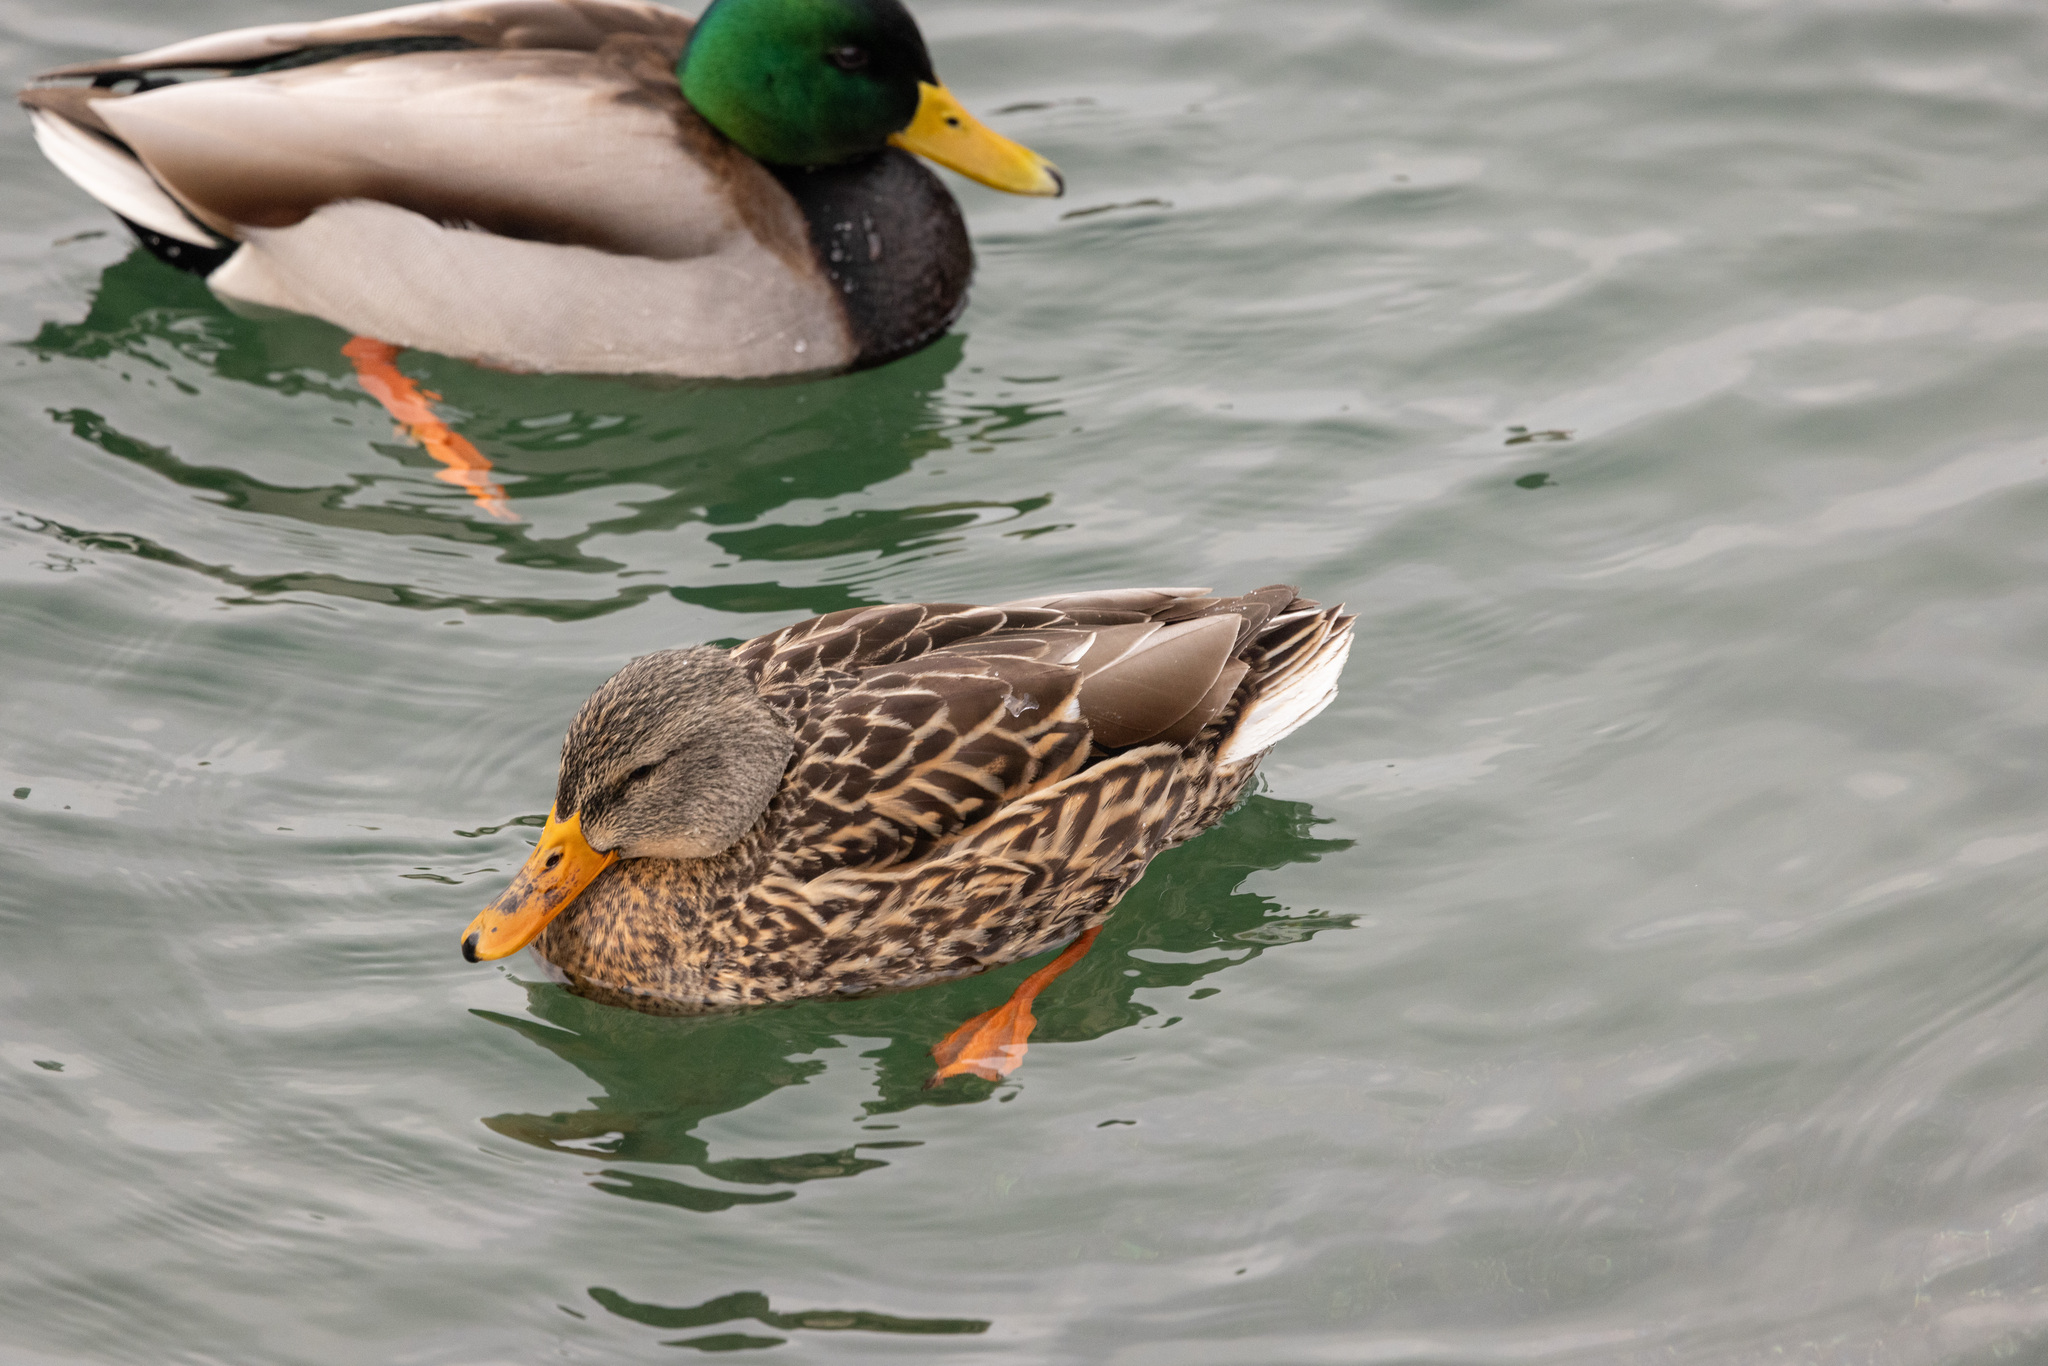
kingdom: Animalia
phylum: Chordata
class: Aves
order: Anseriformes
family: Anatidae
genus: Anas
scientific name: Anas platyrhynchos
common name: Mallard
